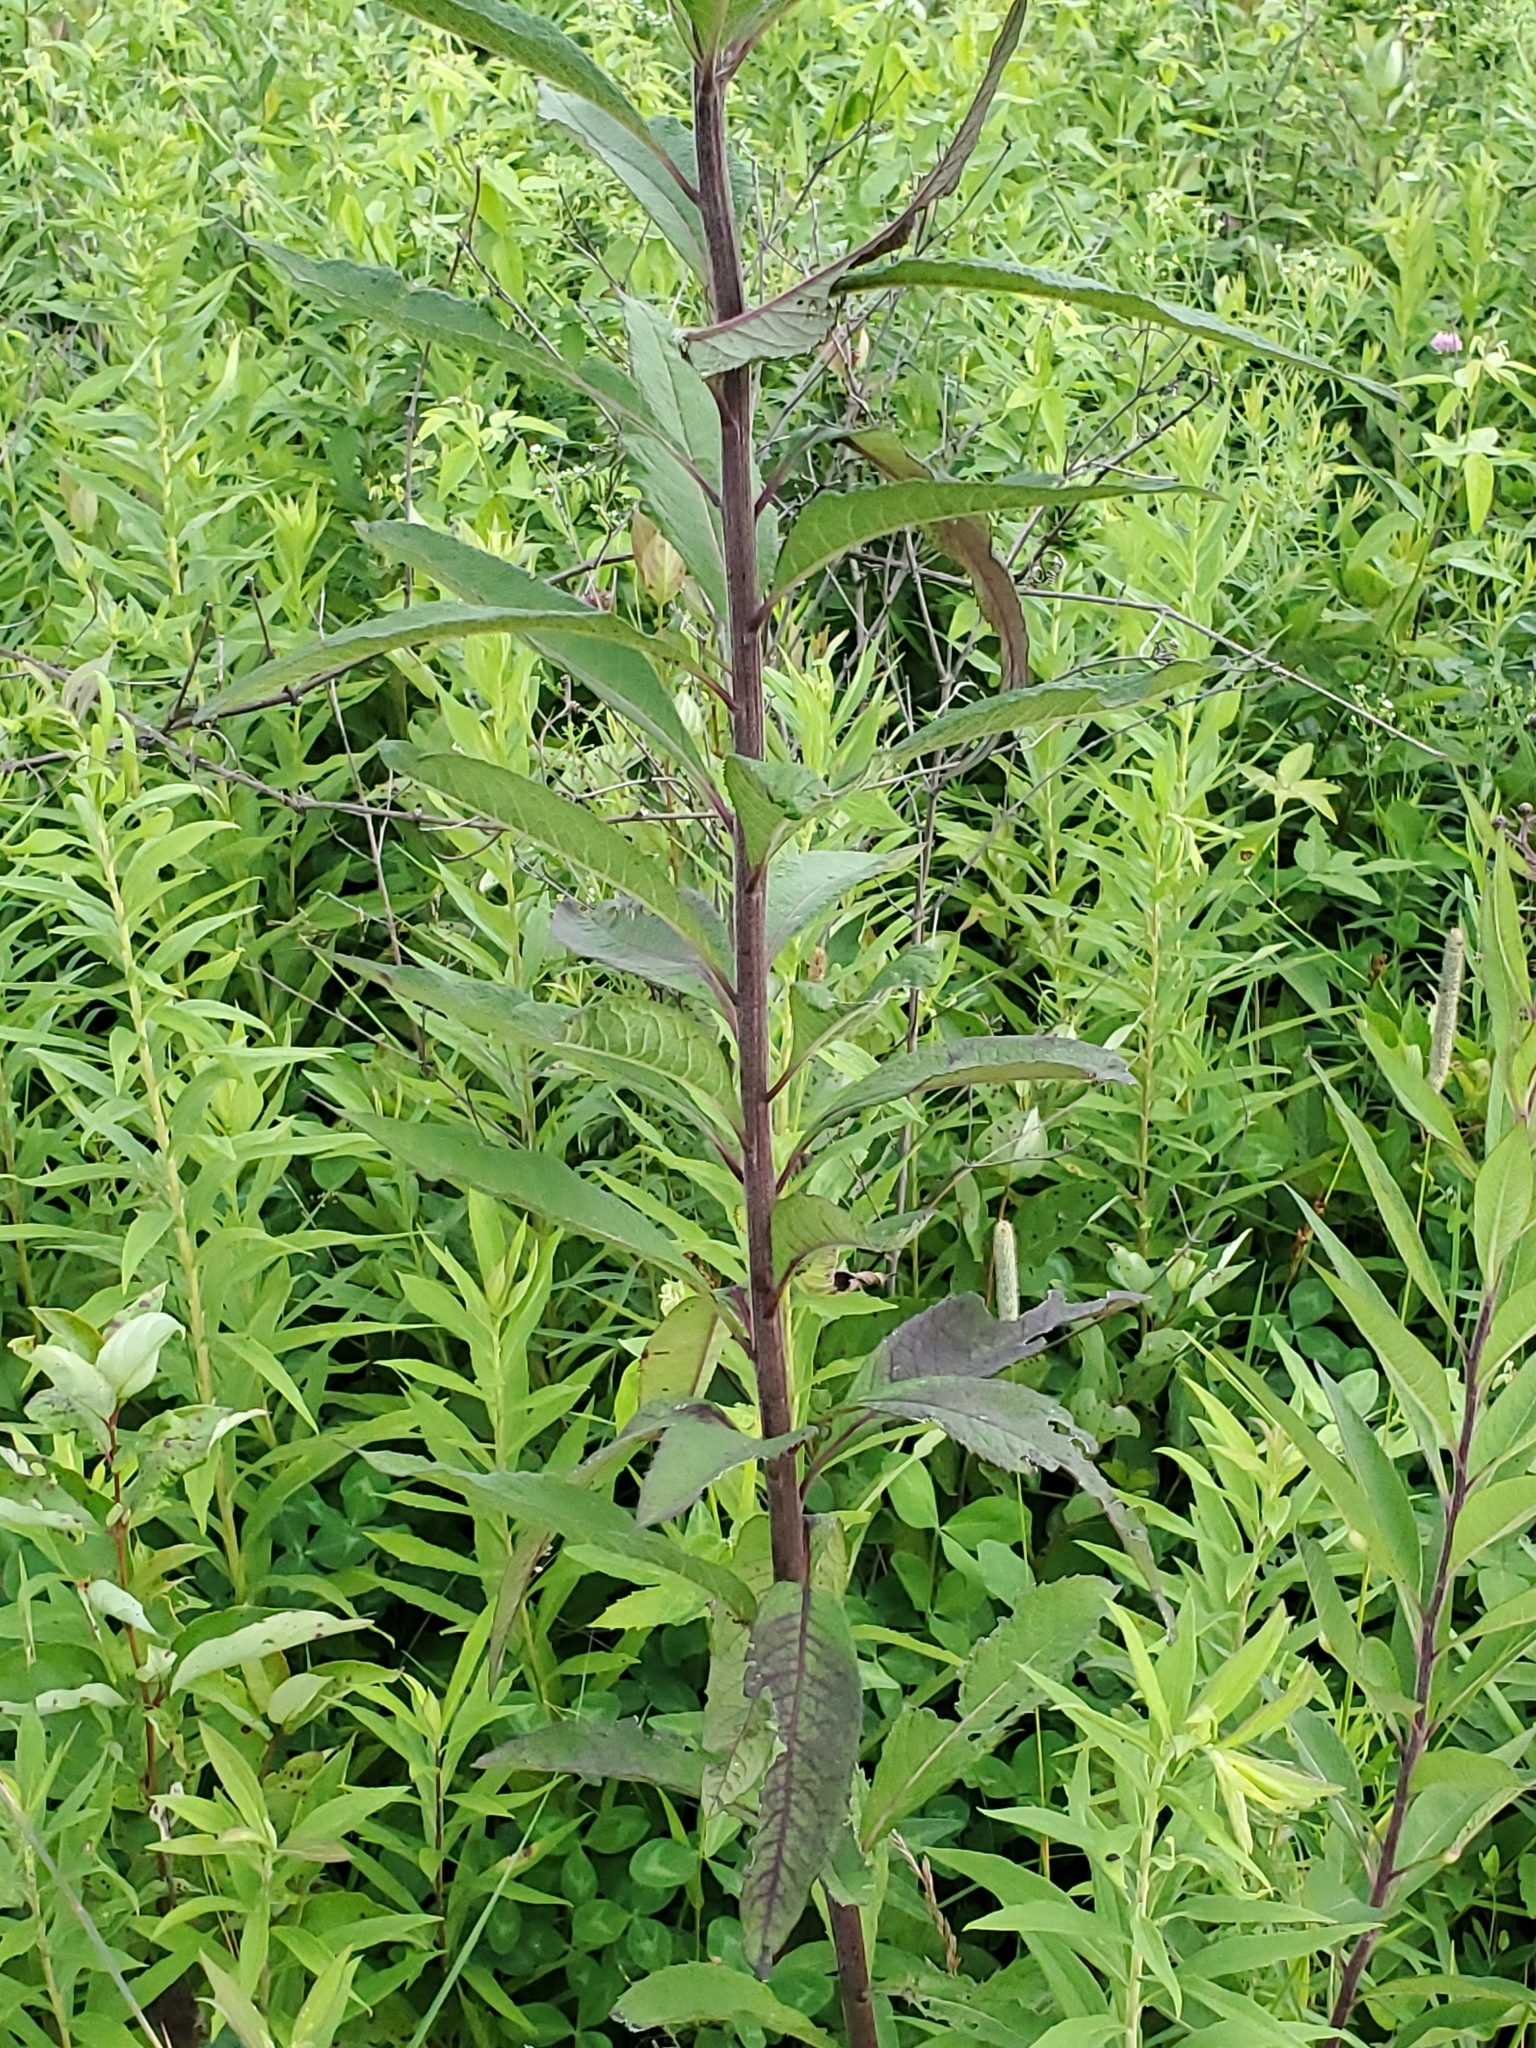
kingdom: Plantae
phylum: Tracheophyta
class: Magnoliopsida
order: Asterales
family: Asteraceae
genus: Vernonia
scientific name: Vernonia missurica
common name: Missouri ironweed
